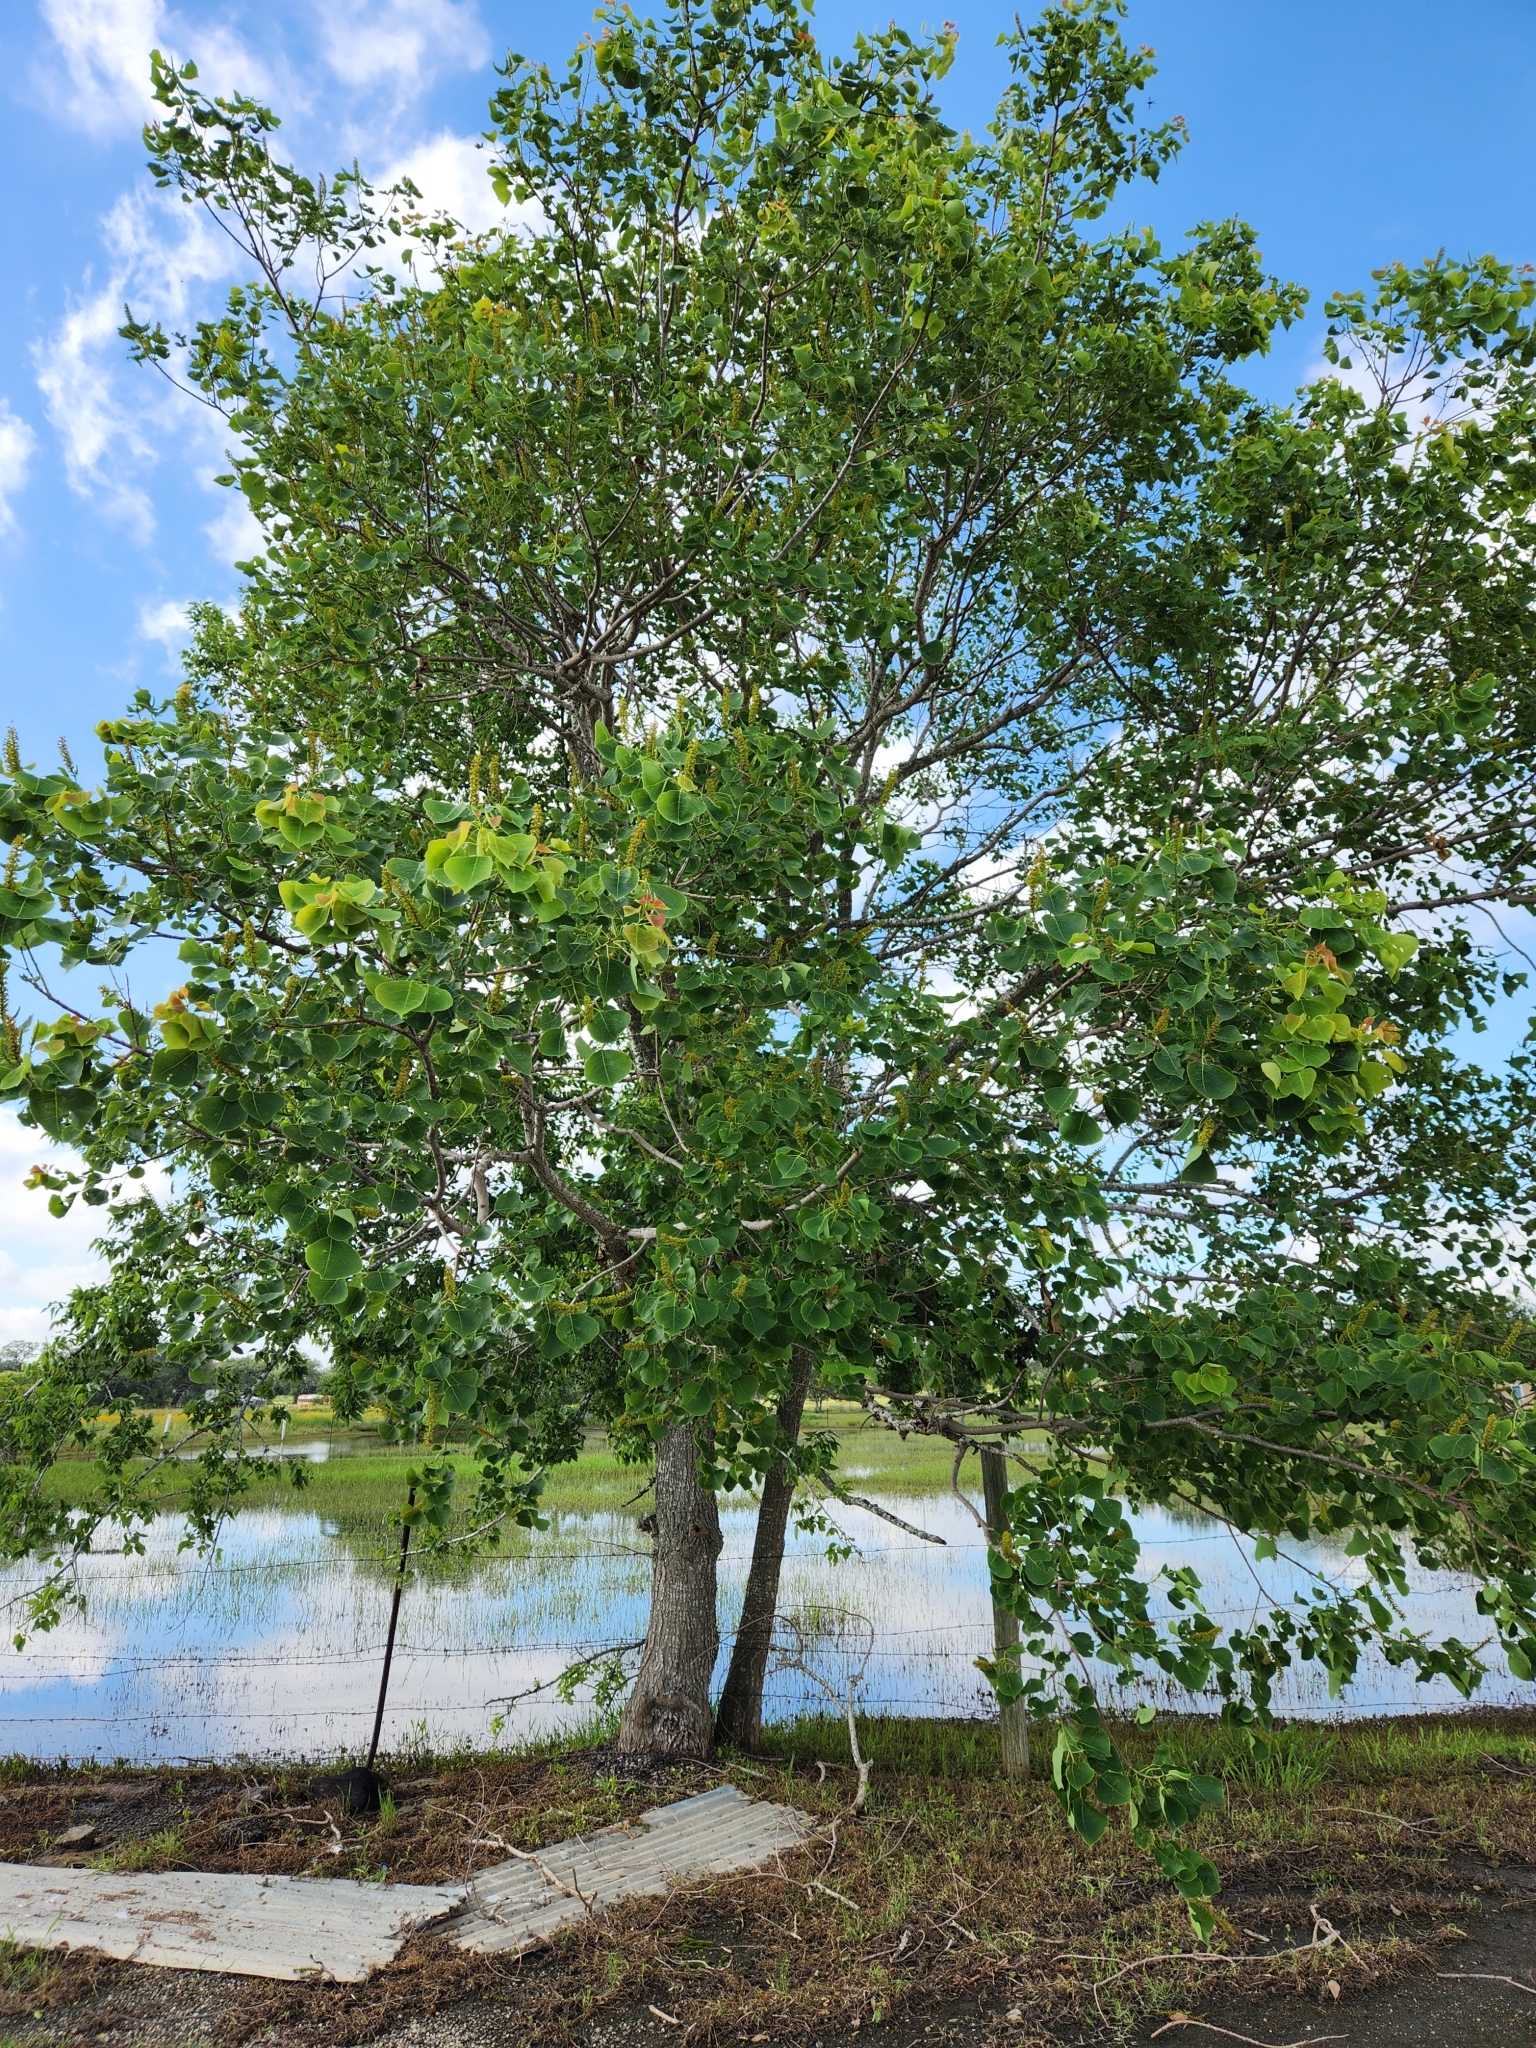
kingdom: Plantae
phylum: Tracheophyta
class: Magnoliopsida
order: Malpighiales
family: Euphorbiaceae
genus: Triadica
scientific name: Triadica sebifera
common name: Chinese tallow
